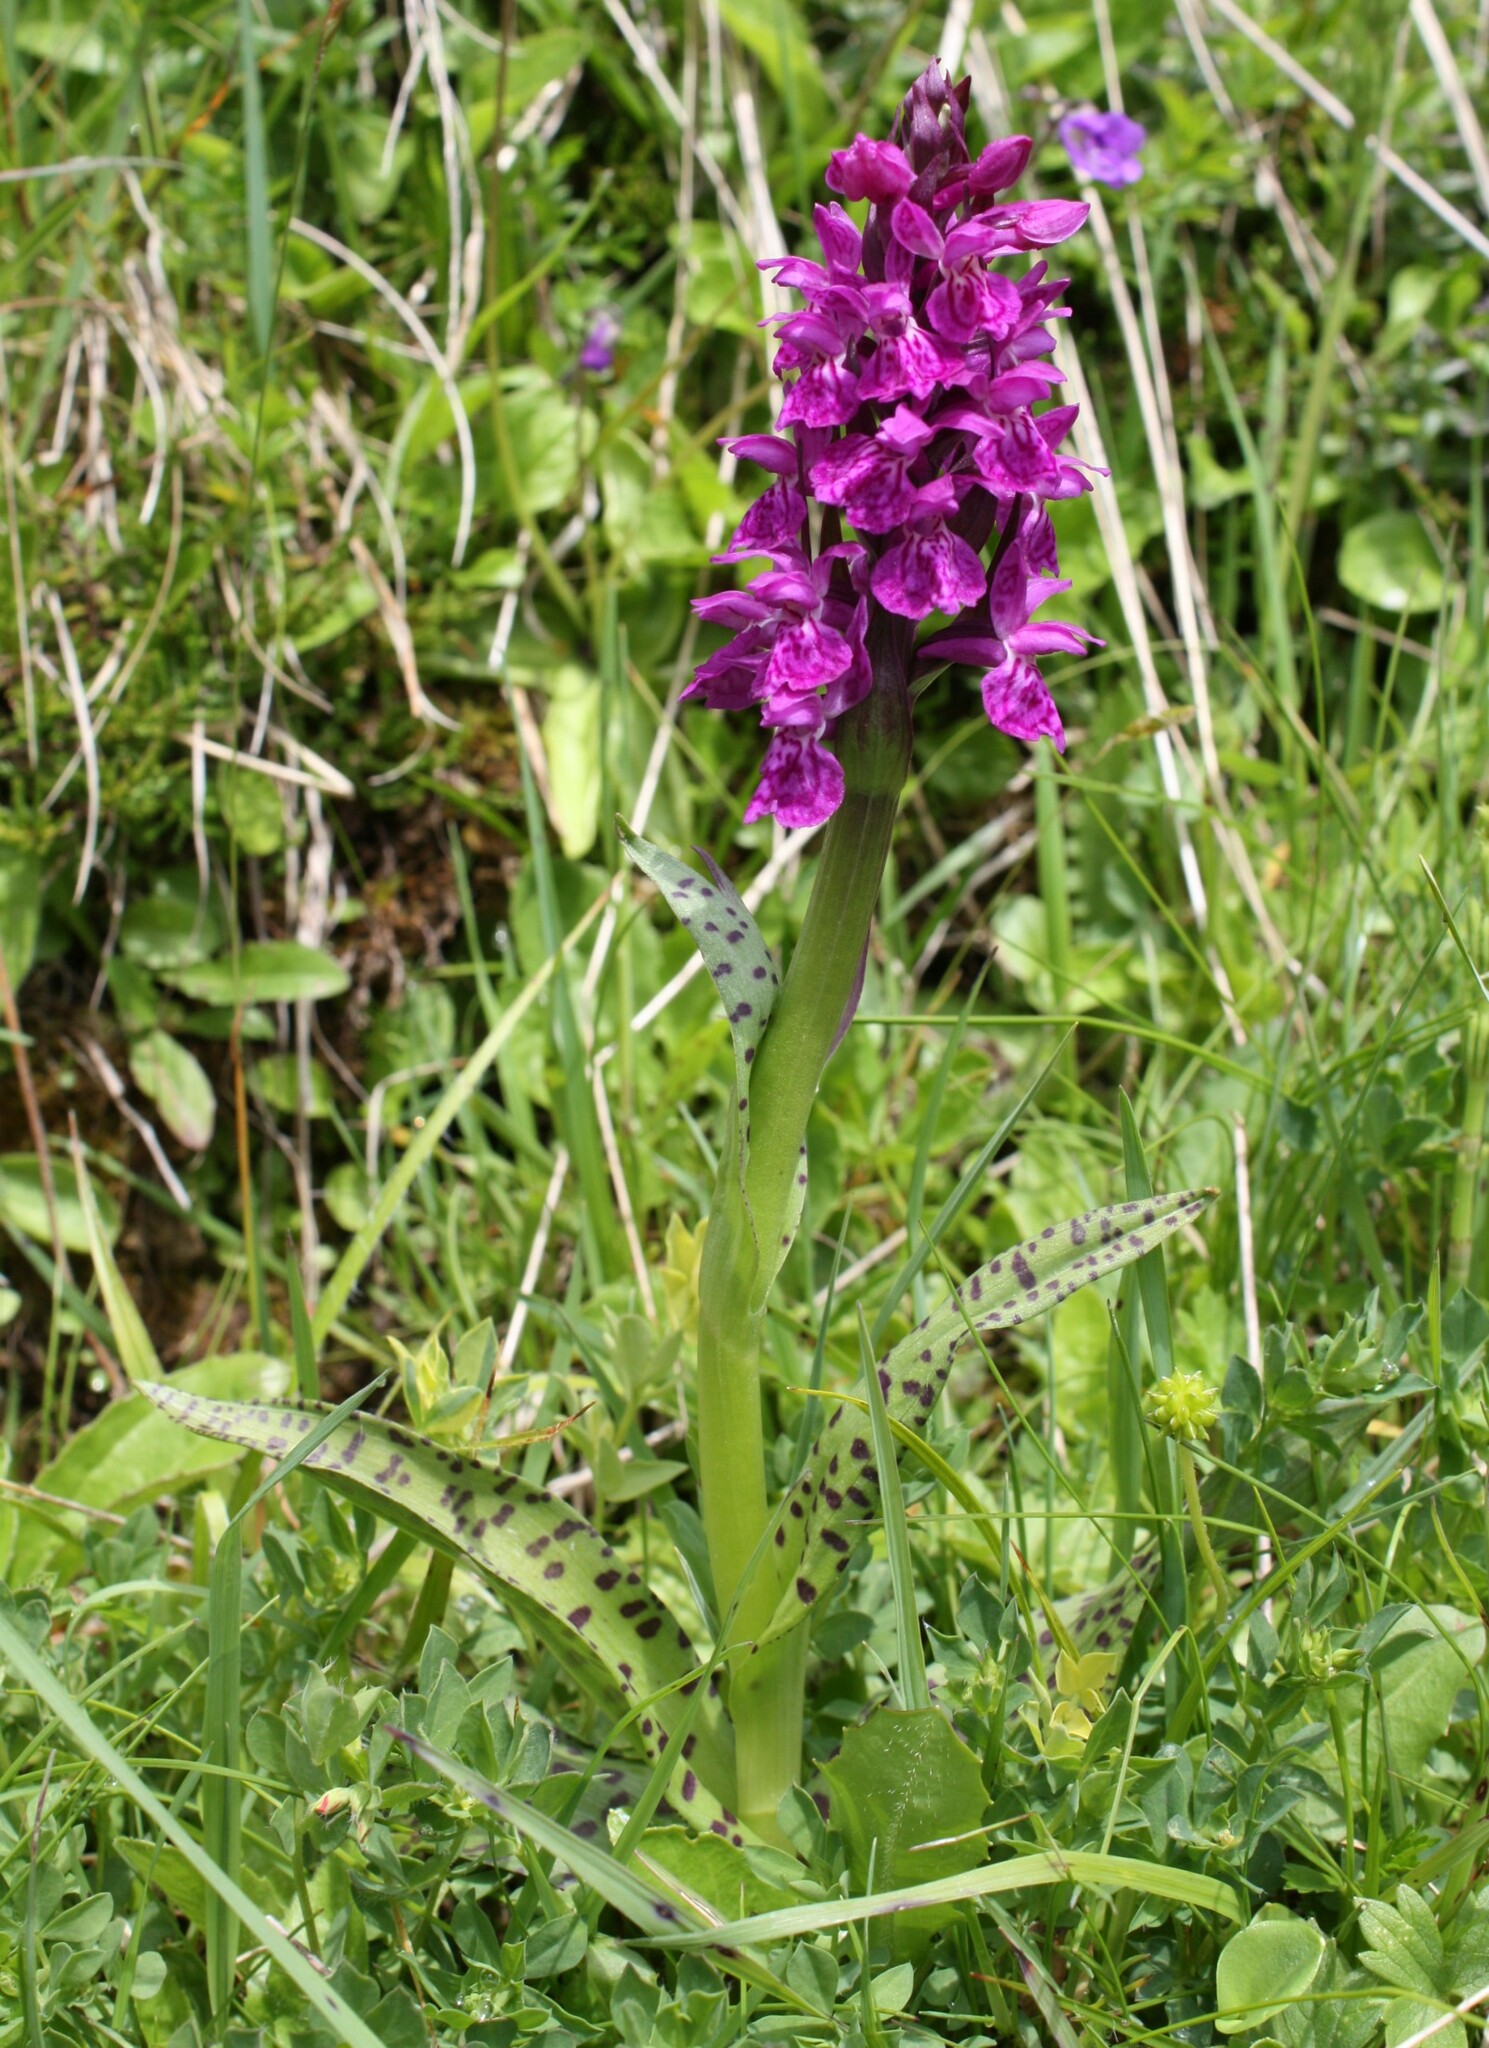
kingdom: Plantae
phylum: Tracheophyta
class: Liliopsida
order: Asparagales
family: Orchidaceae
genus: Dactylorhiza
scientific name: Dactylorhiza majalis
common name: Marsh orchid
